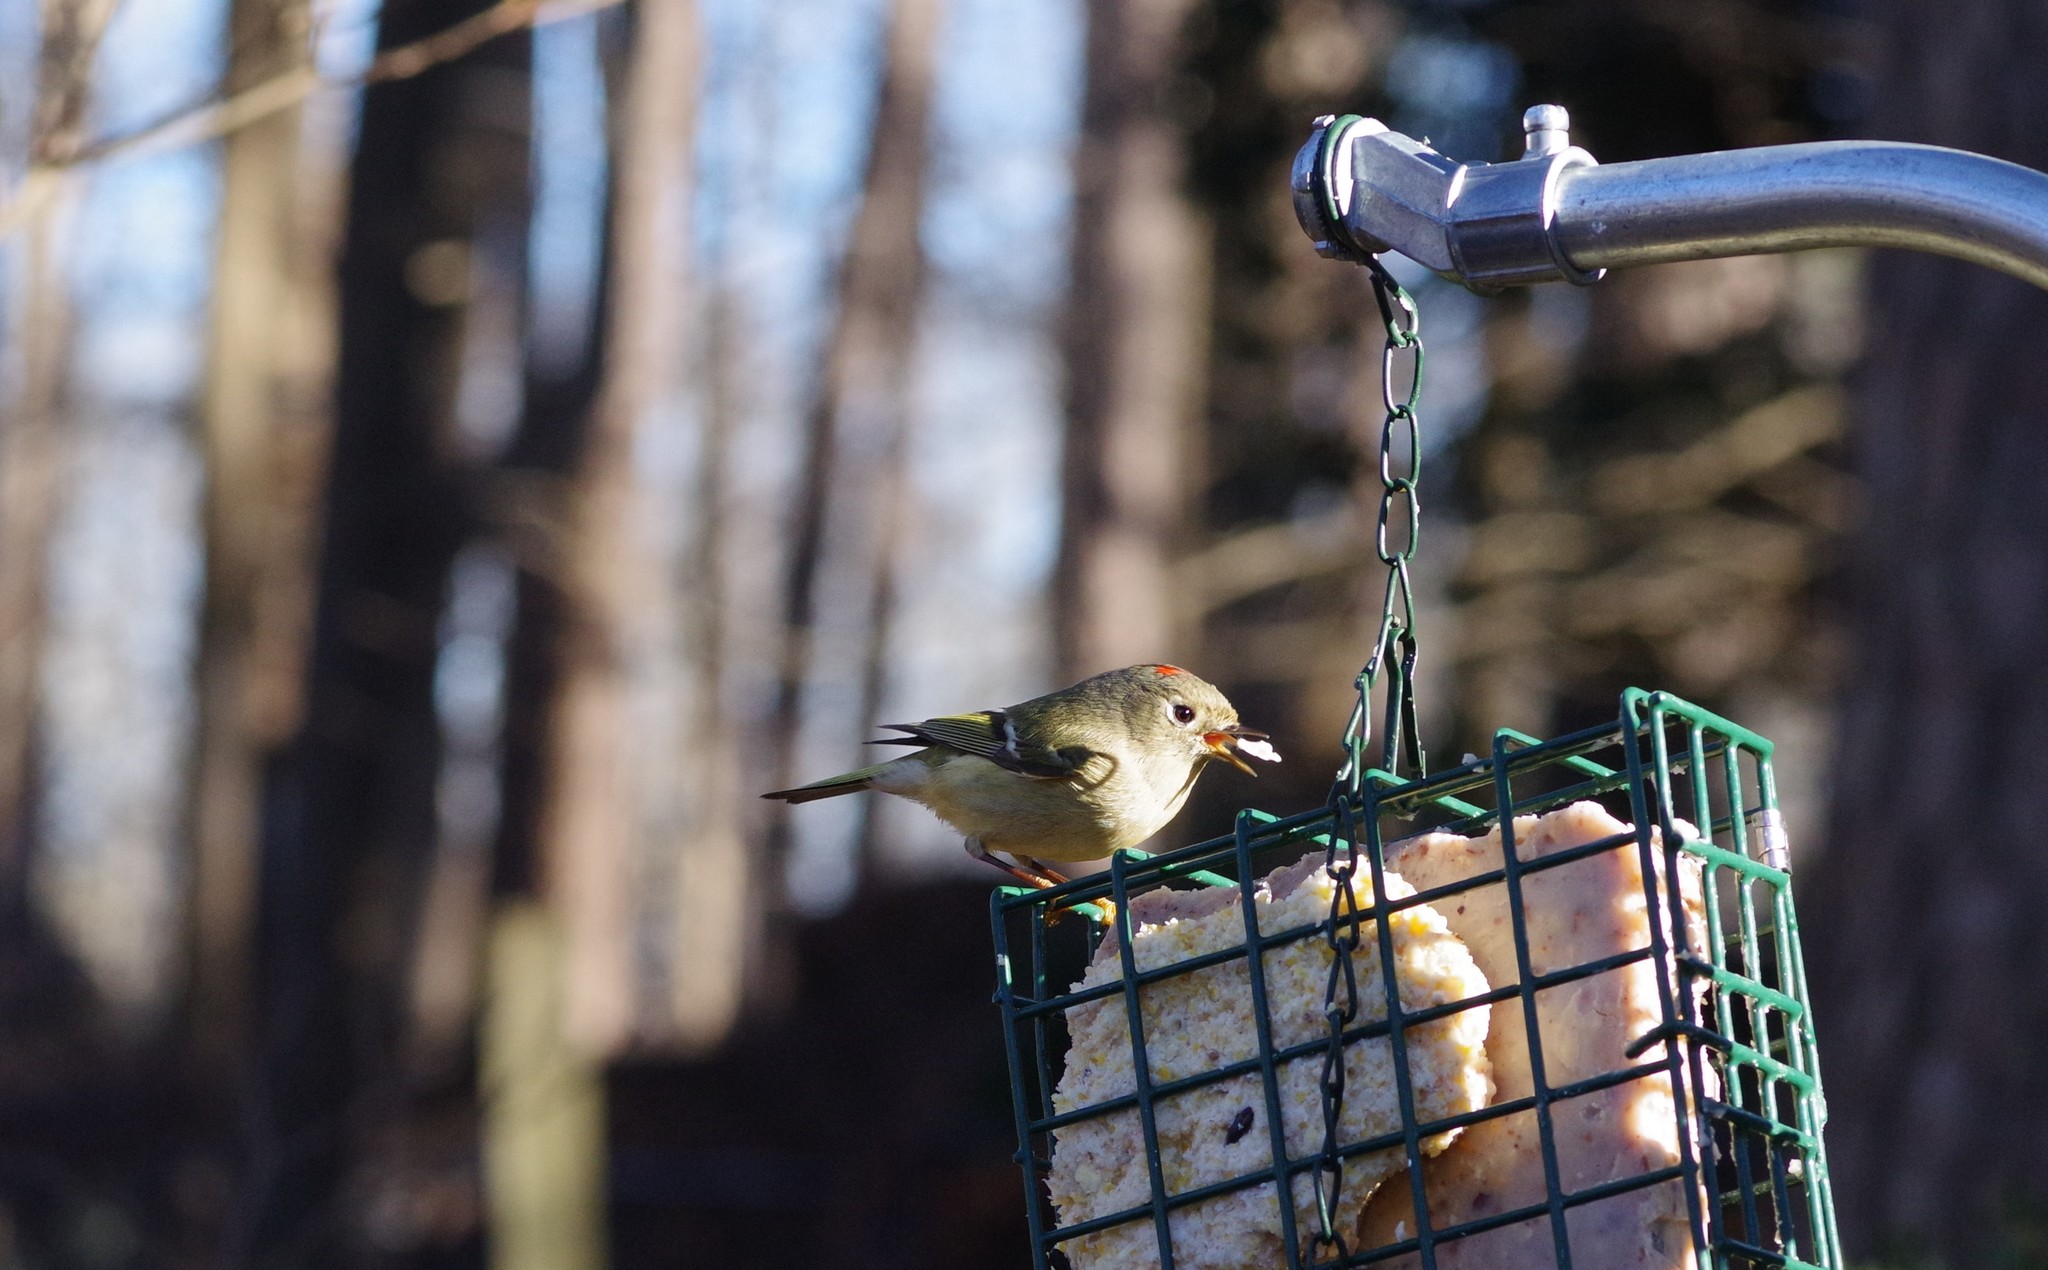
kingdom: Animalia
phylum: Chordata
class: Aves
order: Passeriformes
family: Regulidae
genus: Regulus
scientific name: Regulus calendula
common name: Ruby-crowned kinglet
